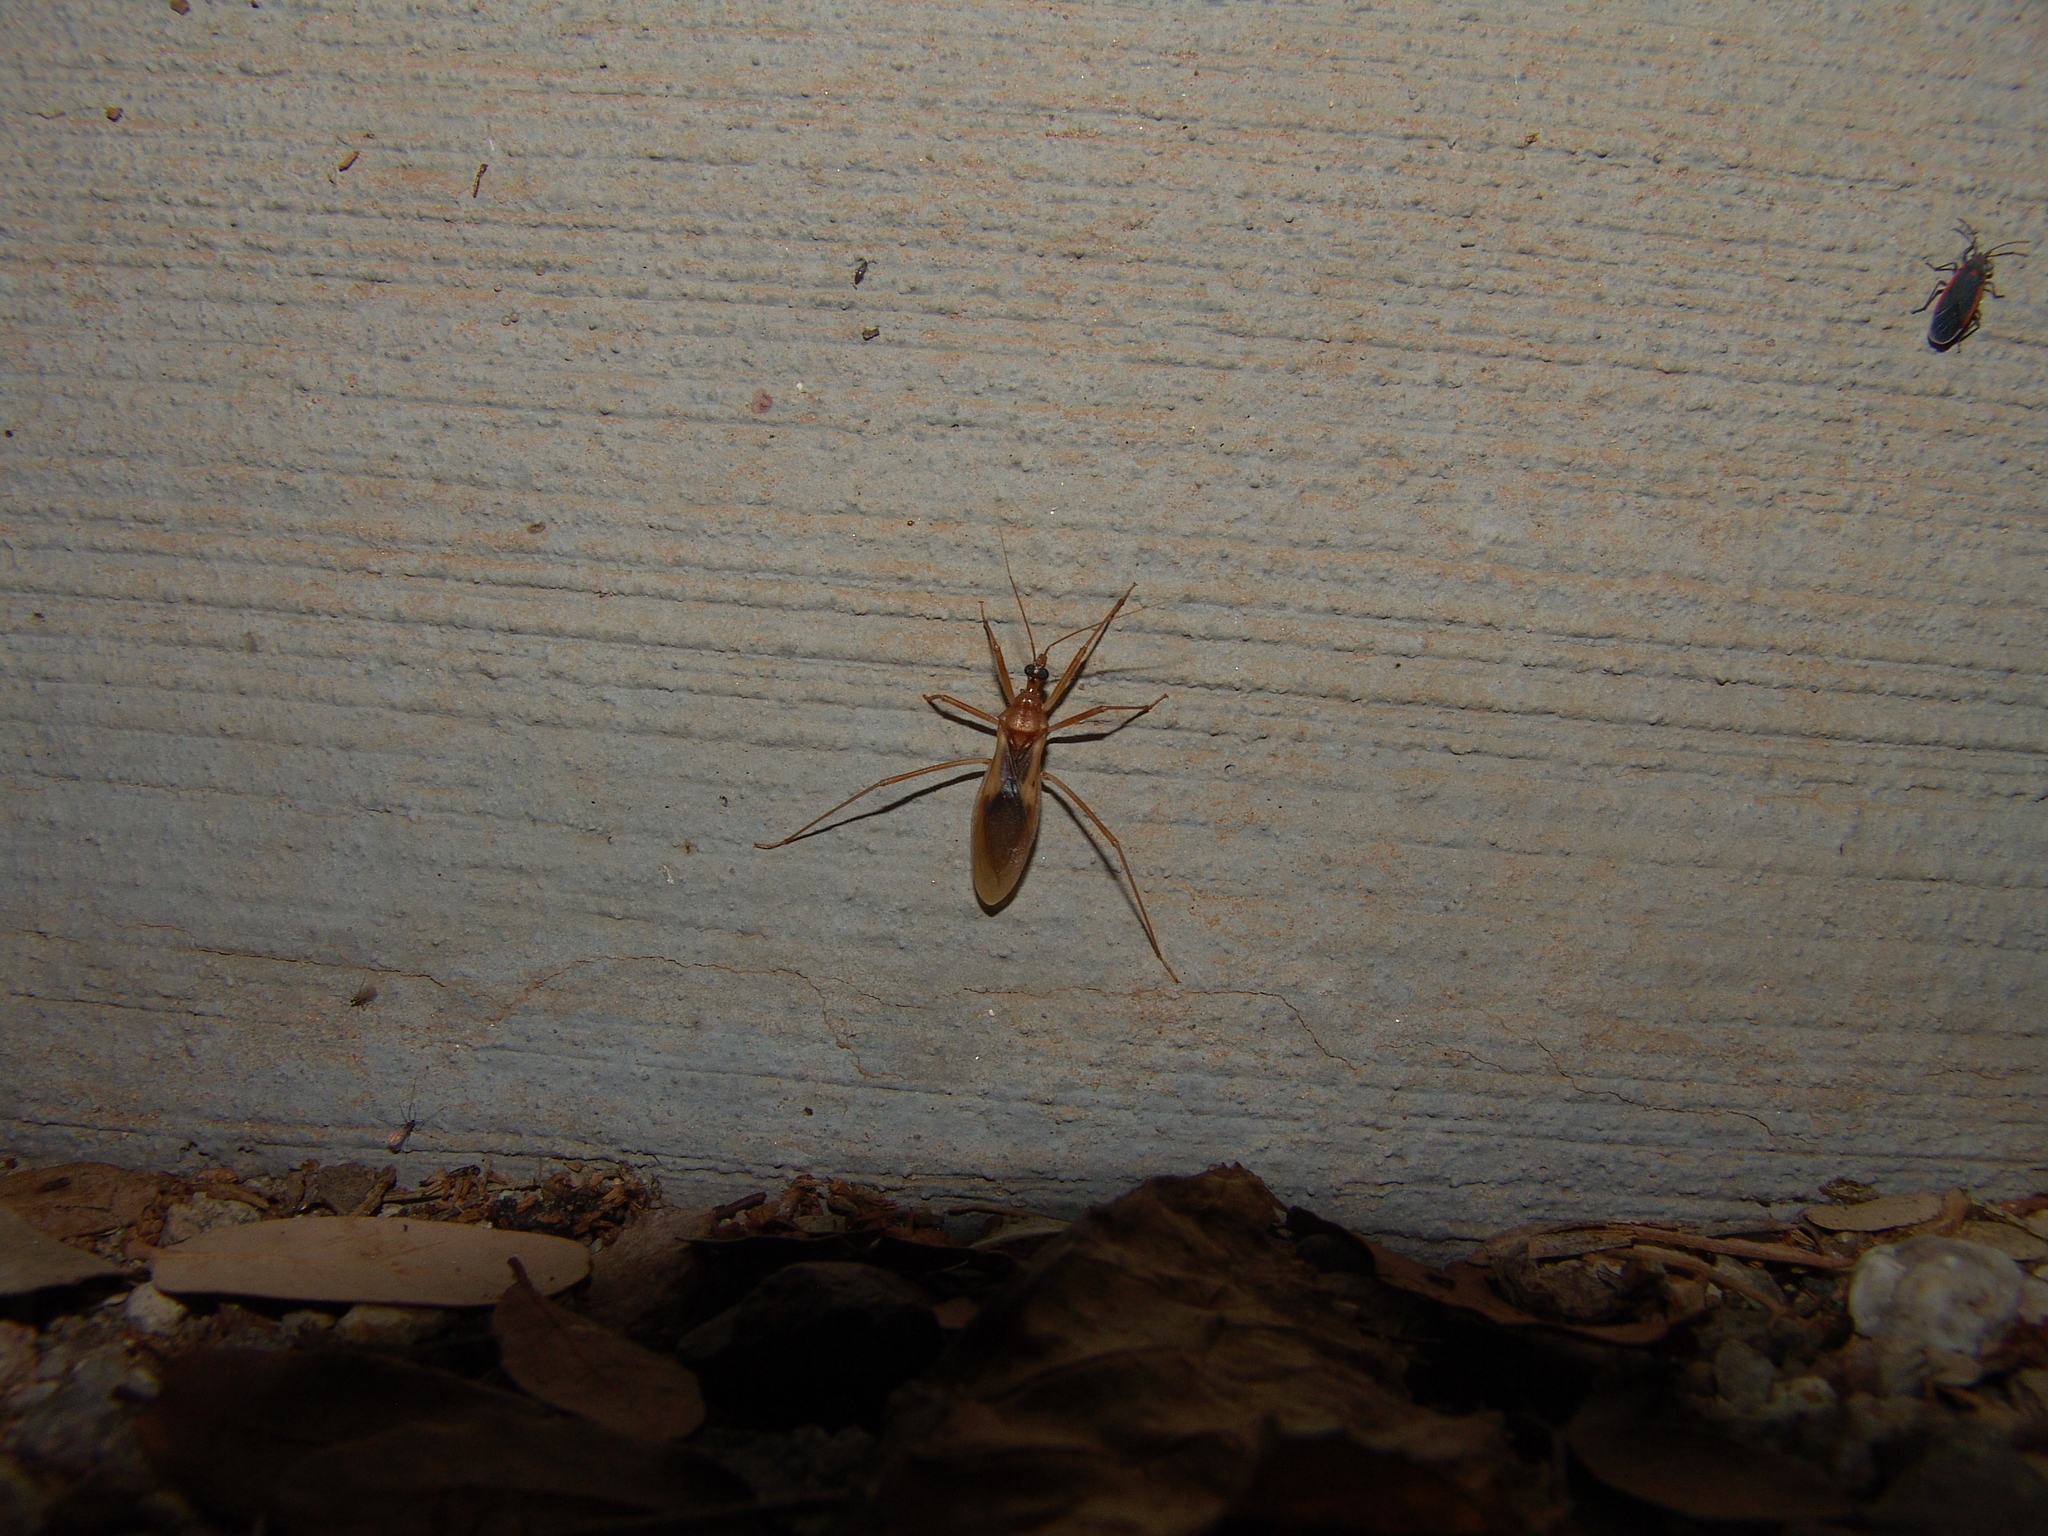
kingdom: Animalia
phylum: Arthropoda
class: Insecta
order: Hemiptera
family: Reduviidae
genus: Zeluroides
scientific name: Zeluroides americanus
